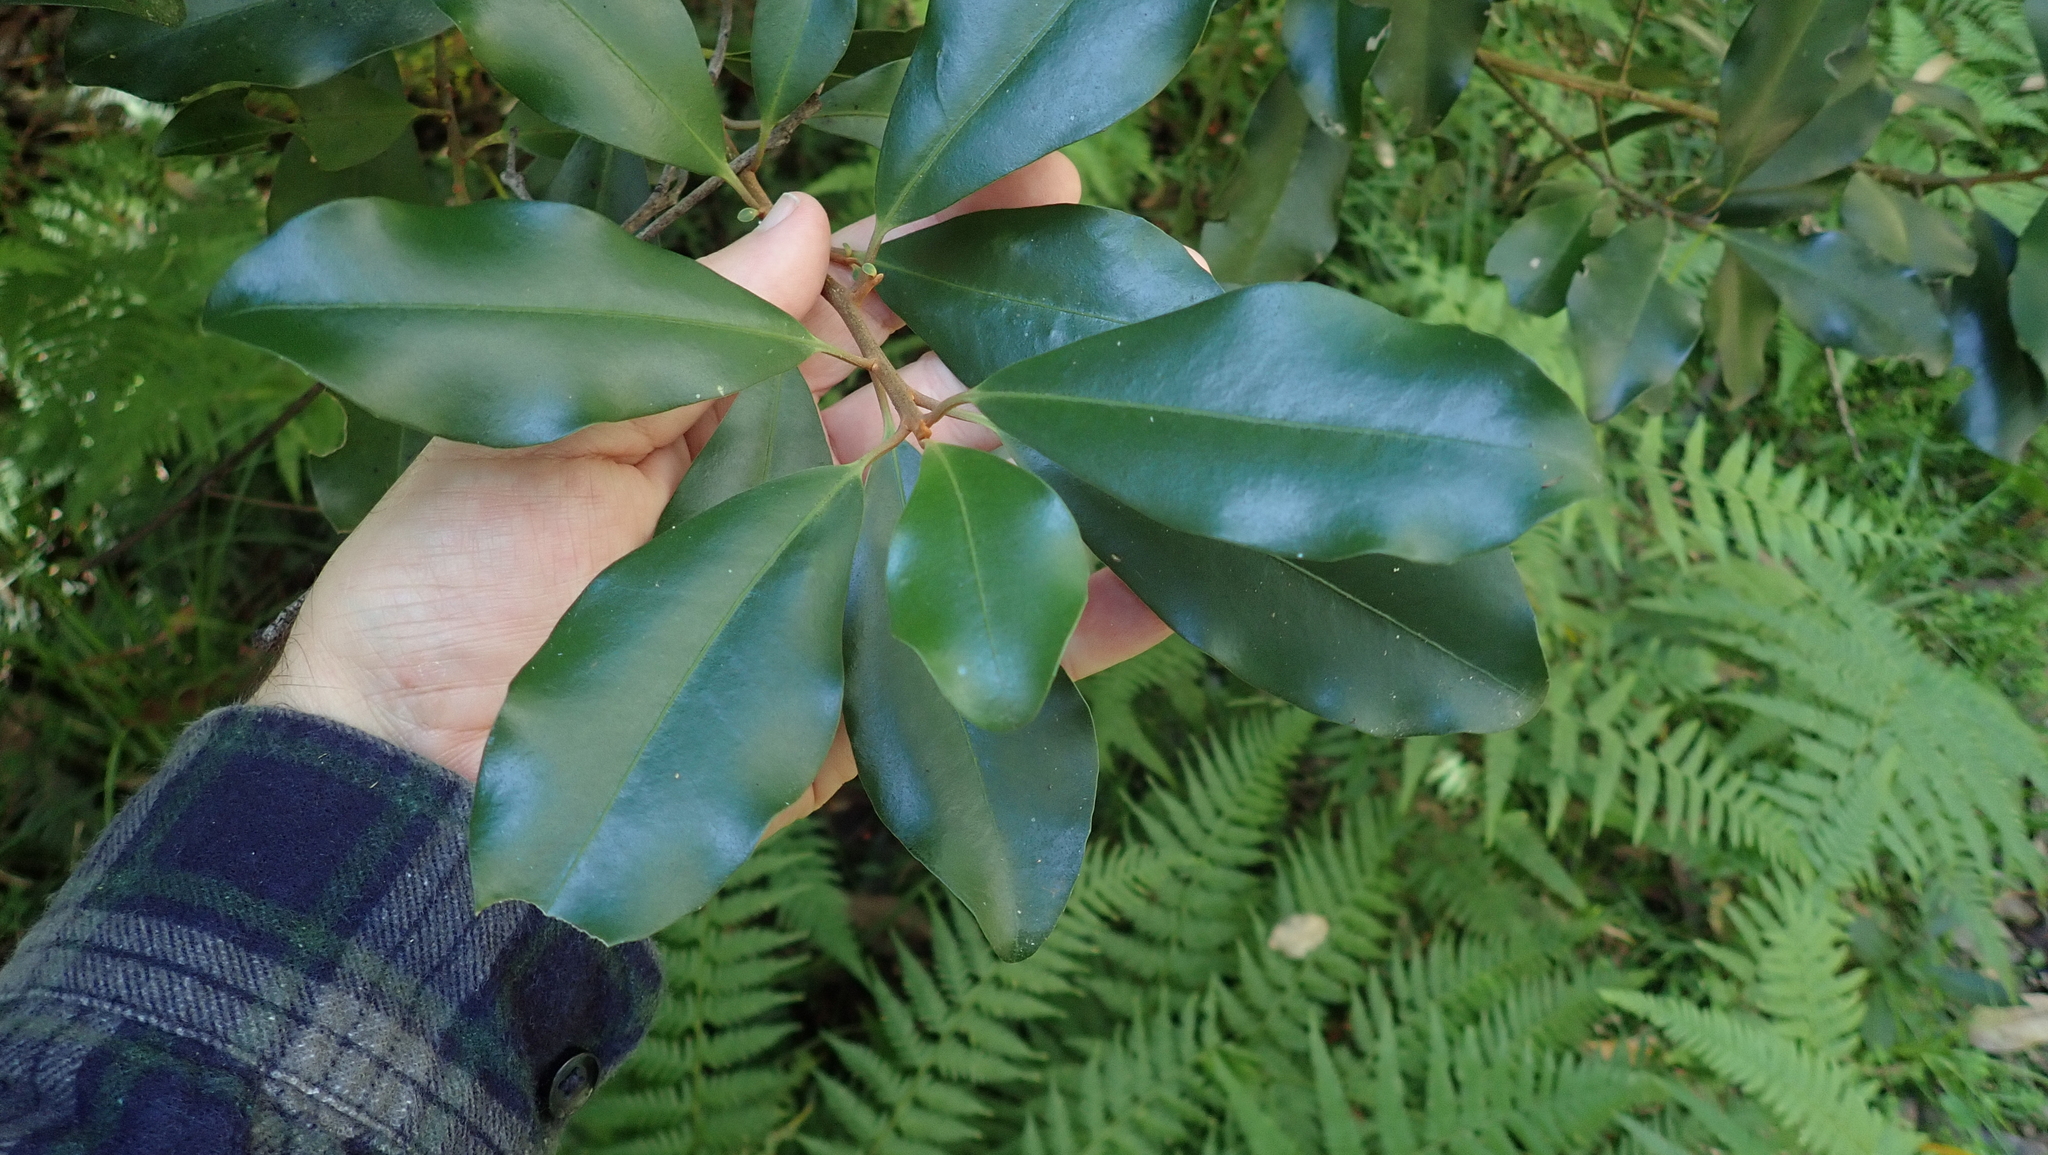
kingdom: Plantae
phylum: Tracheophyta
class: Magnoliopsida
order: Ericales
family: Primulaceae
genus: Myrsine
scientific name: Myrsine howittiana
